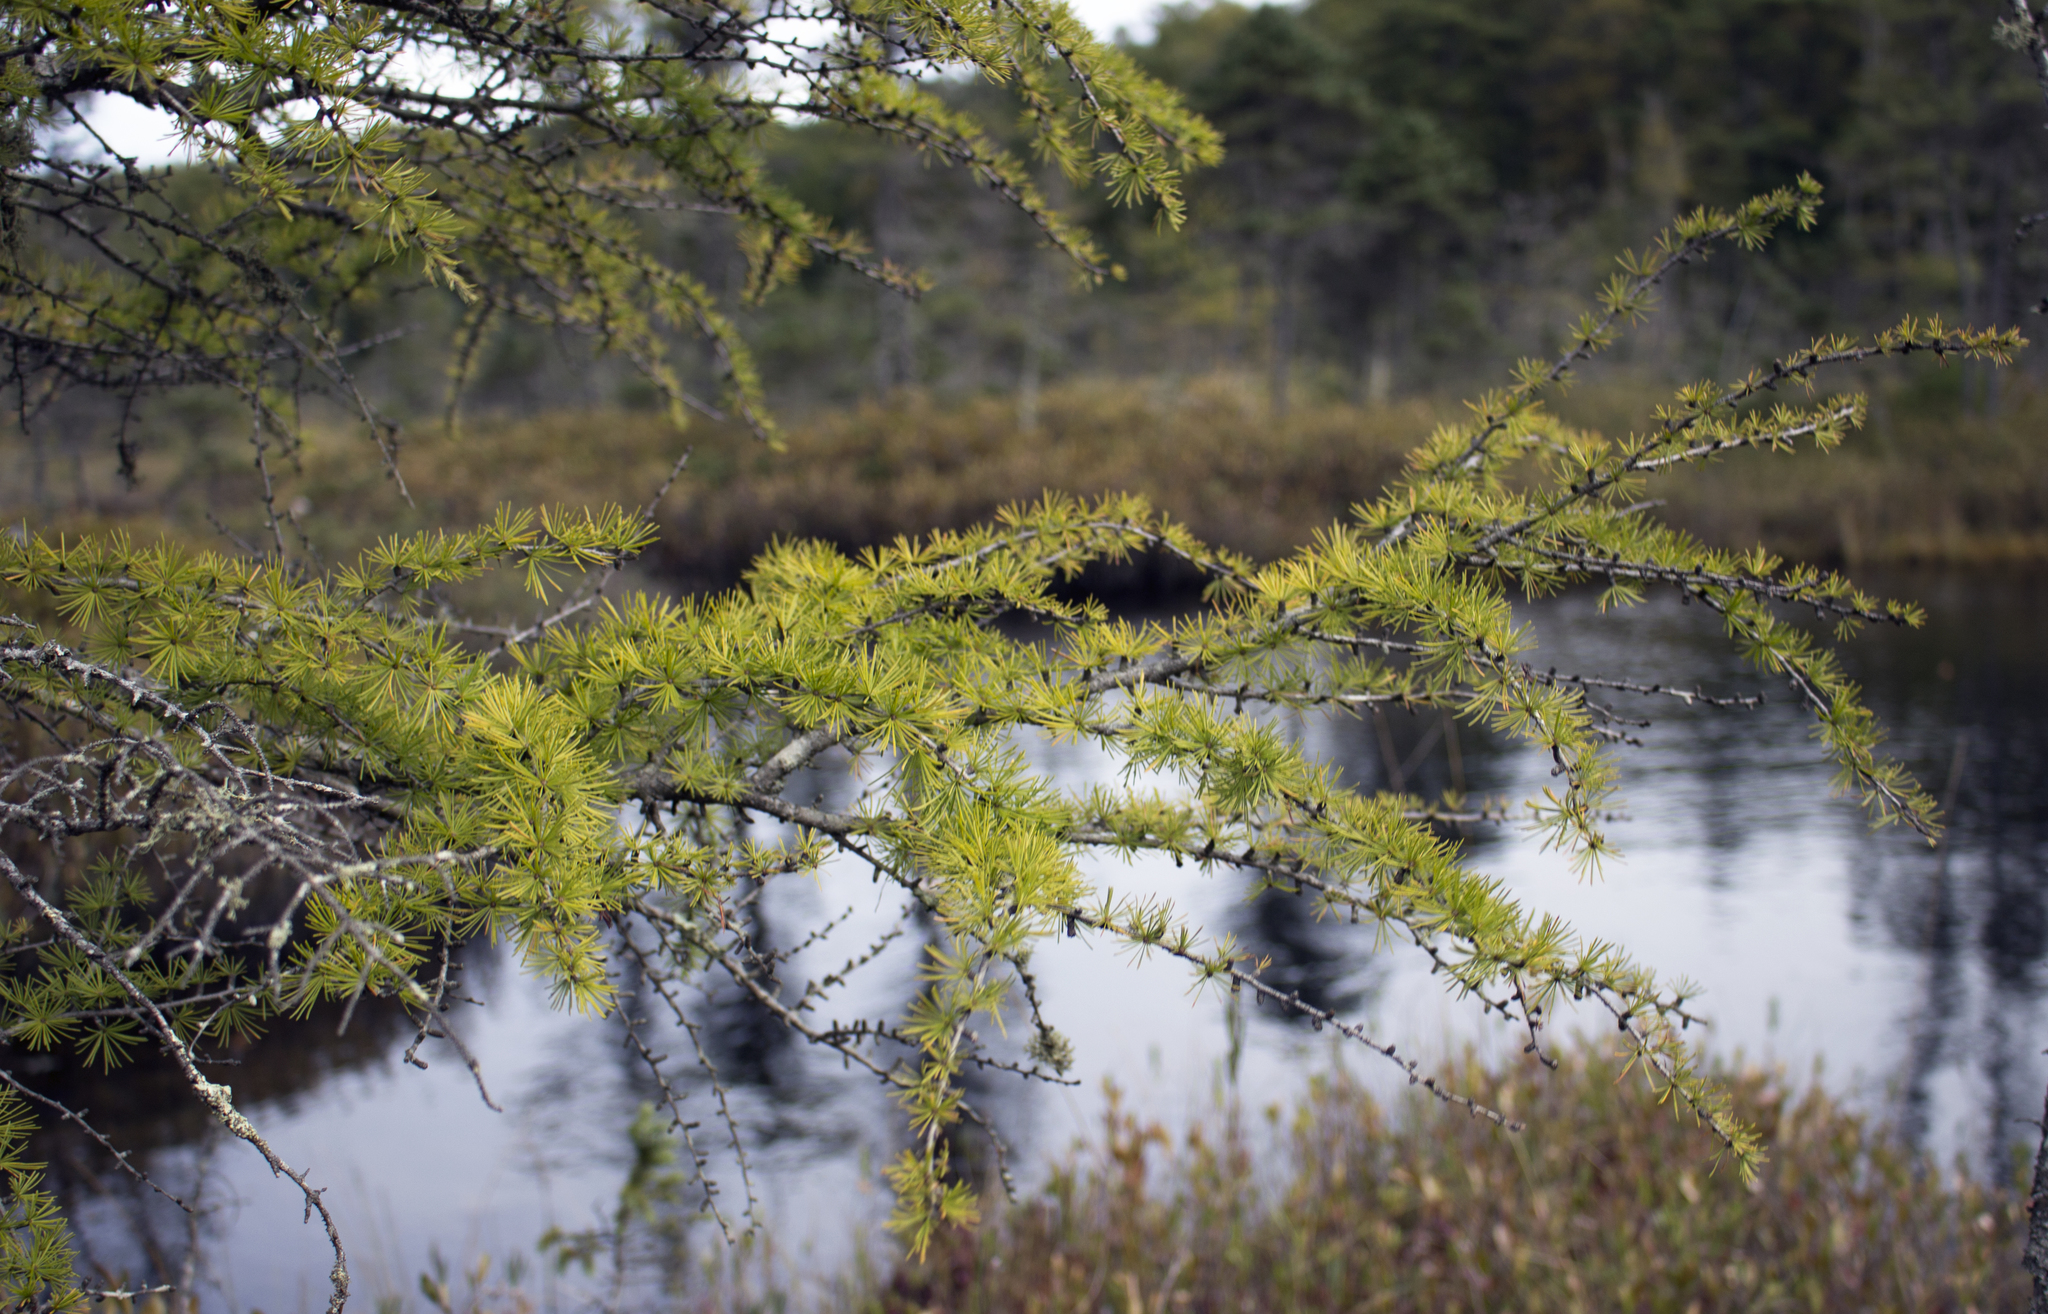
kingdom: Plantae
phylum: Tracheophyta
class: Pinopsida
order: Pinales
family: Pinaceae
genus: Larix
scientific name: Larix laricina
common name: American larch
